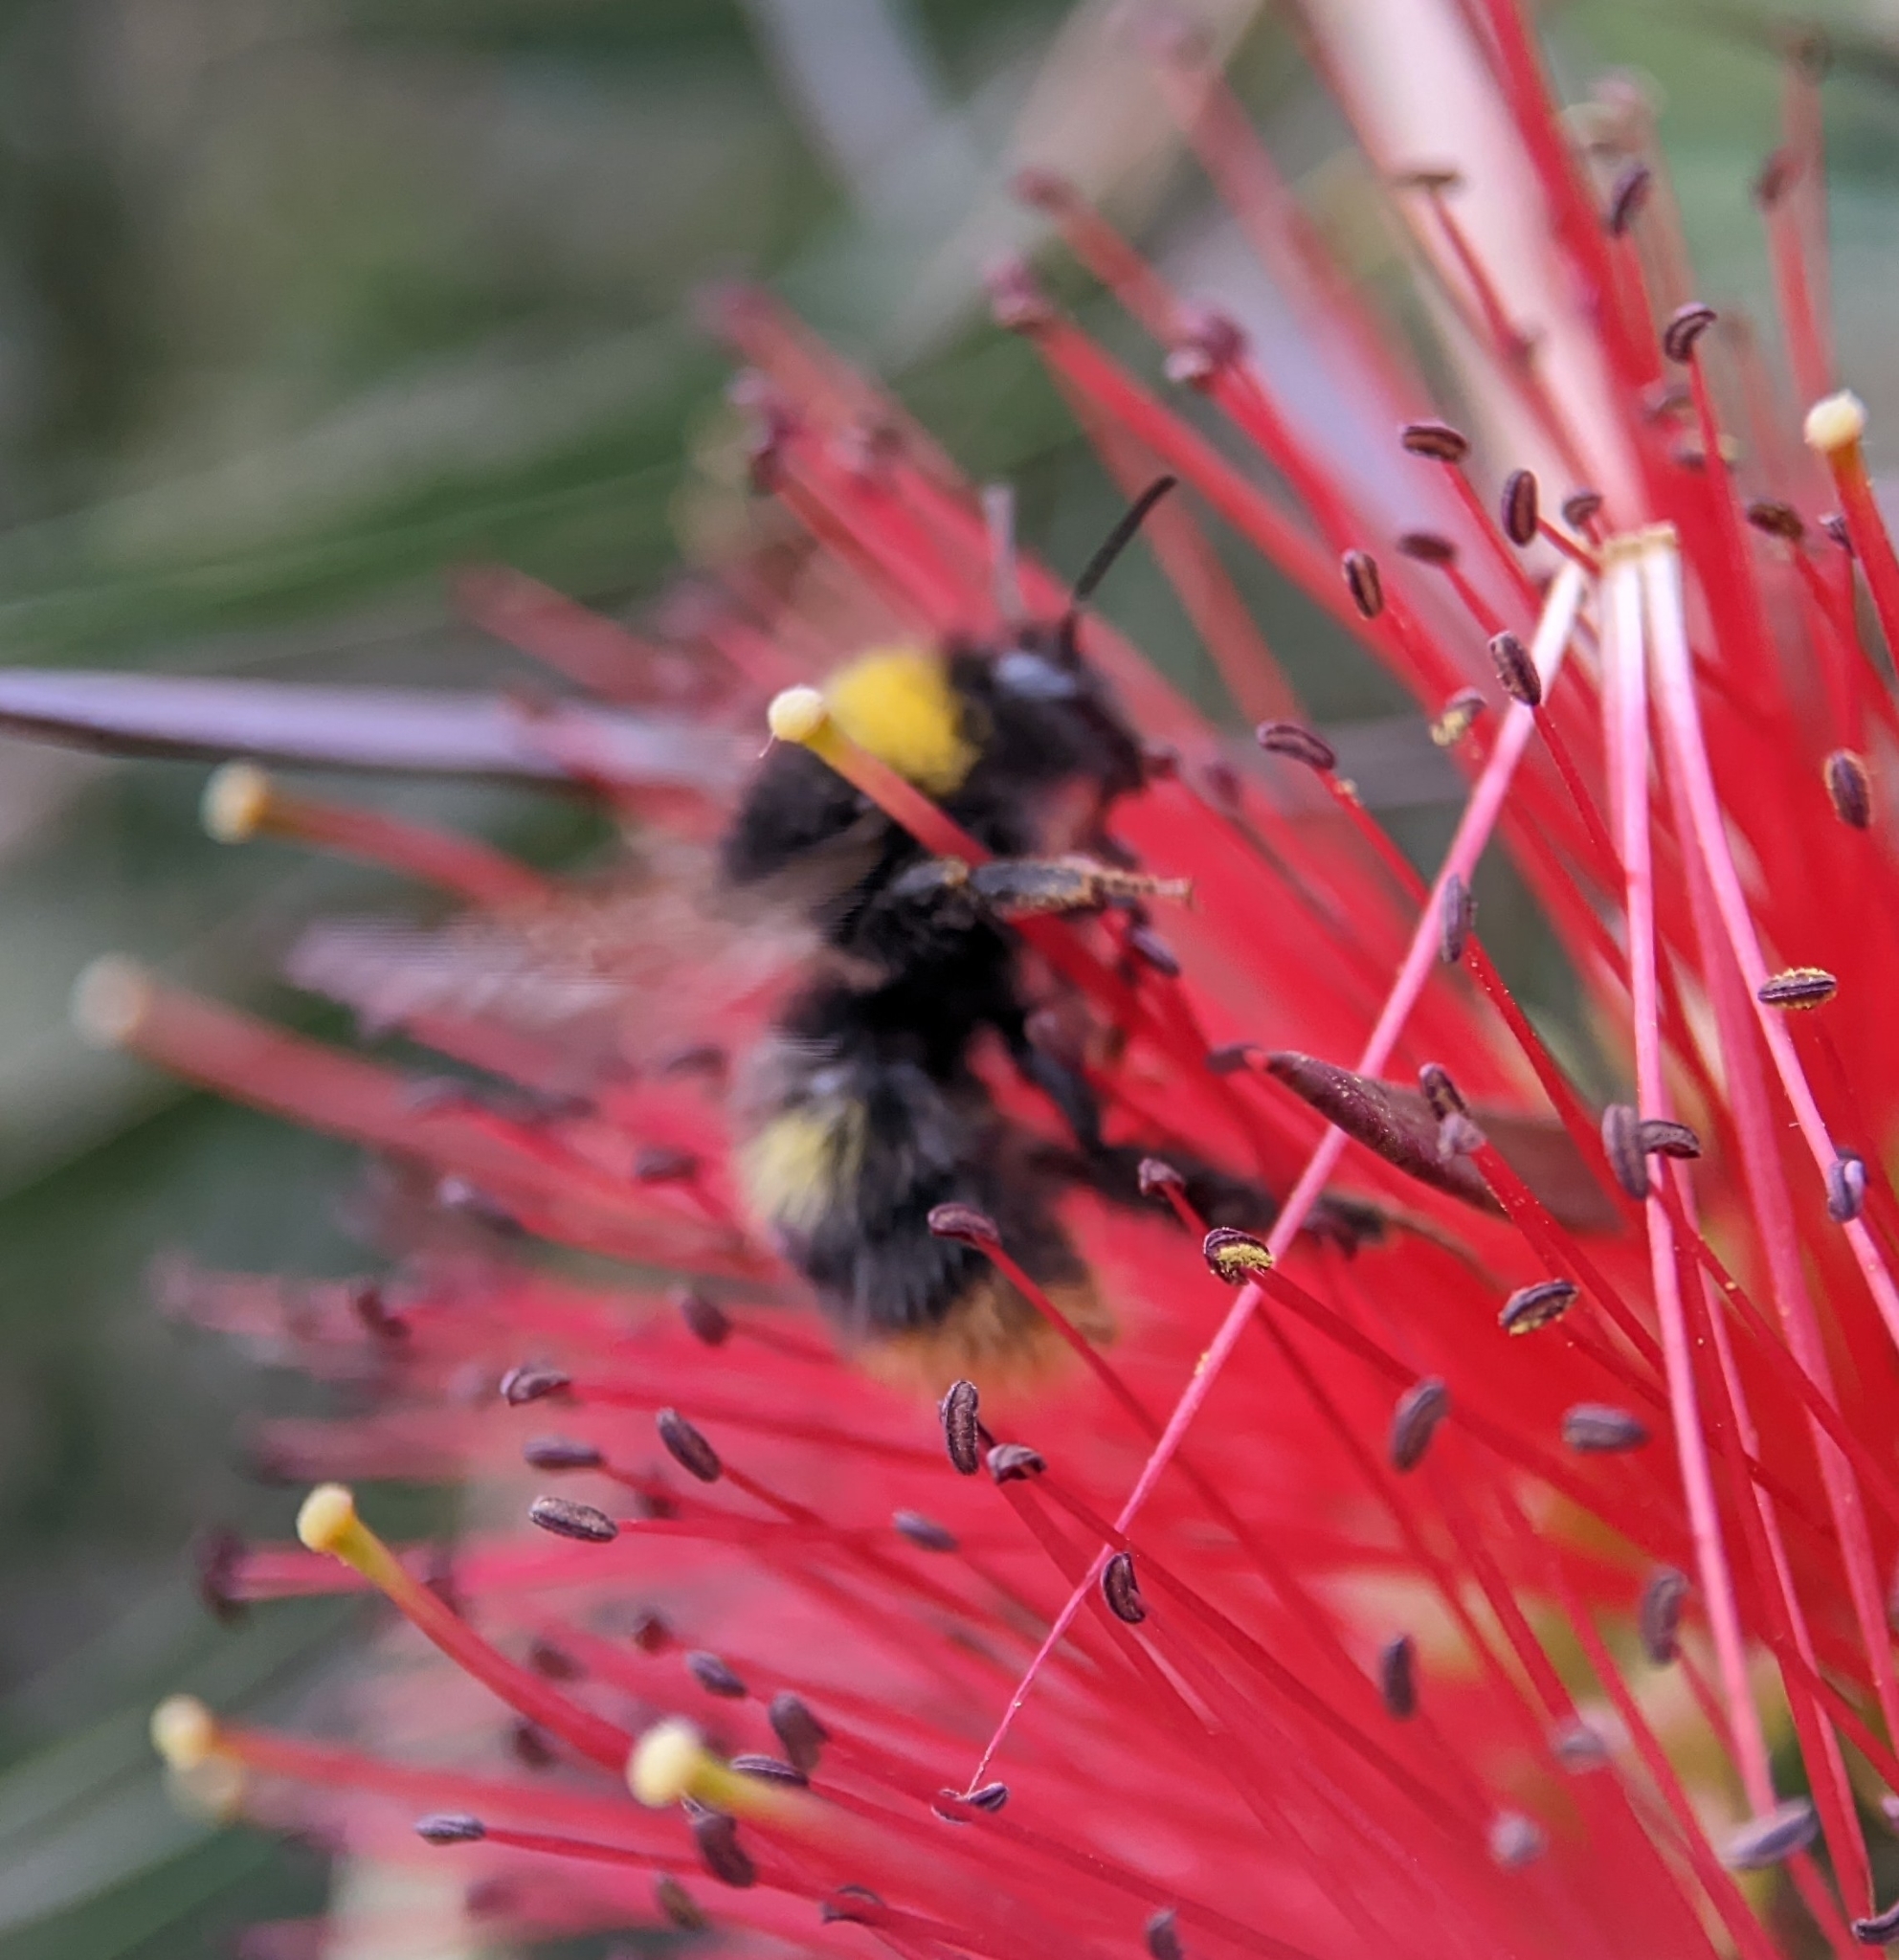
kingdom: Animalia
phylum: Arthropoda
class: Insecta
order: Hymenoptera
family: Apidae
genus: Bombus
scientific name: Bombus pratorum
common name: Early humble-bee
